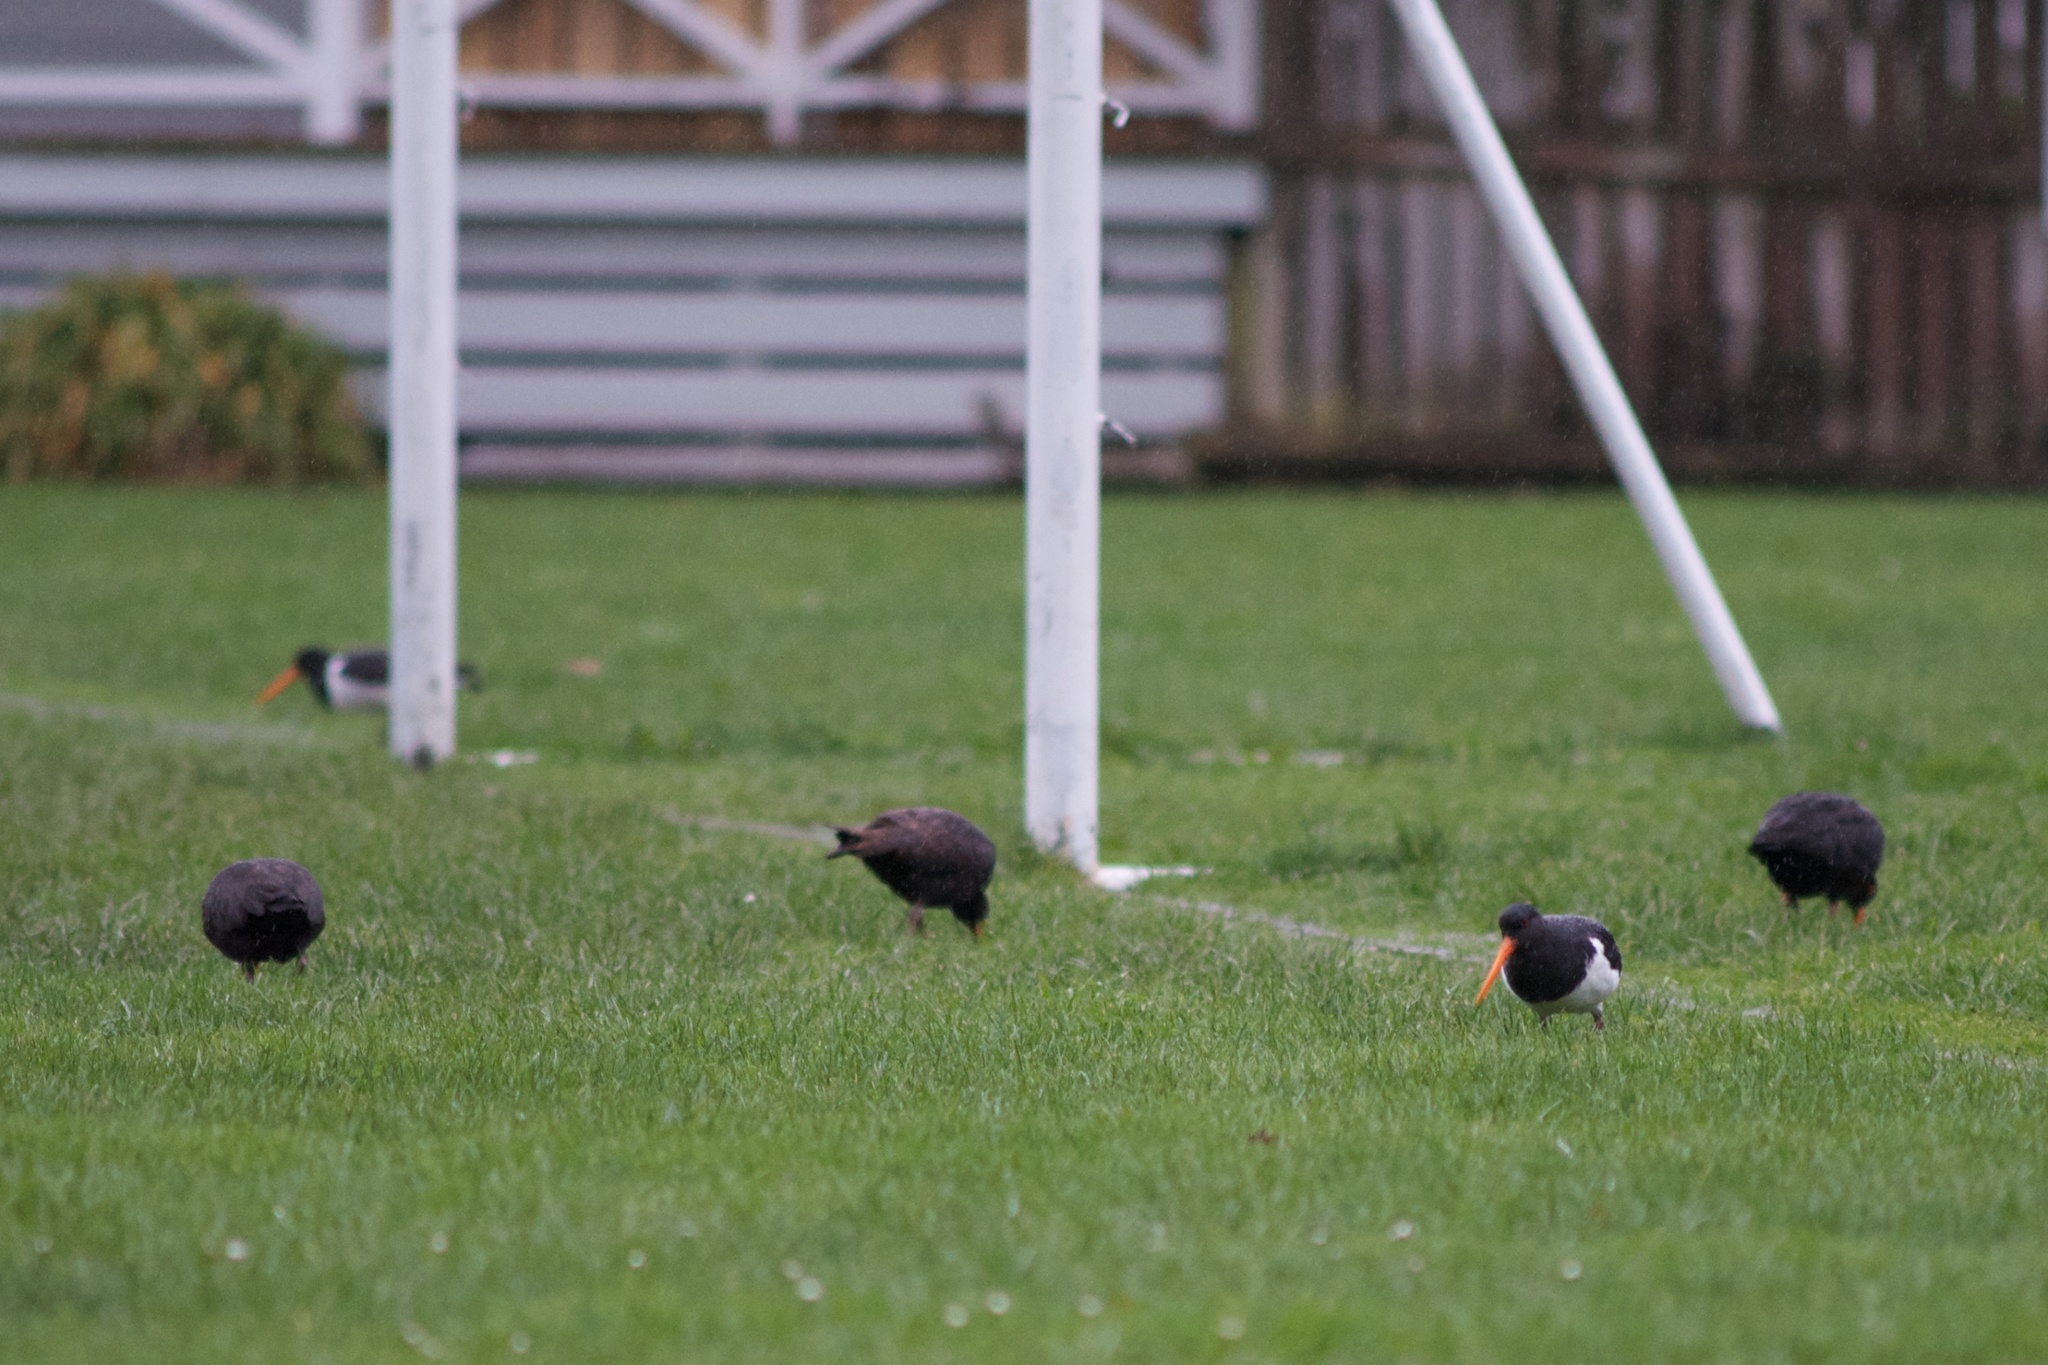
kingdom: Animalia
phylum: Chordata
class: Aves
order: Charadriiformes
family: Haematopodidae
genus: Haematopus
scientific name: Haematopus finschi
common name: South island oystercatcher
